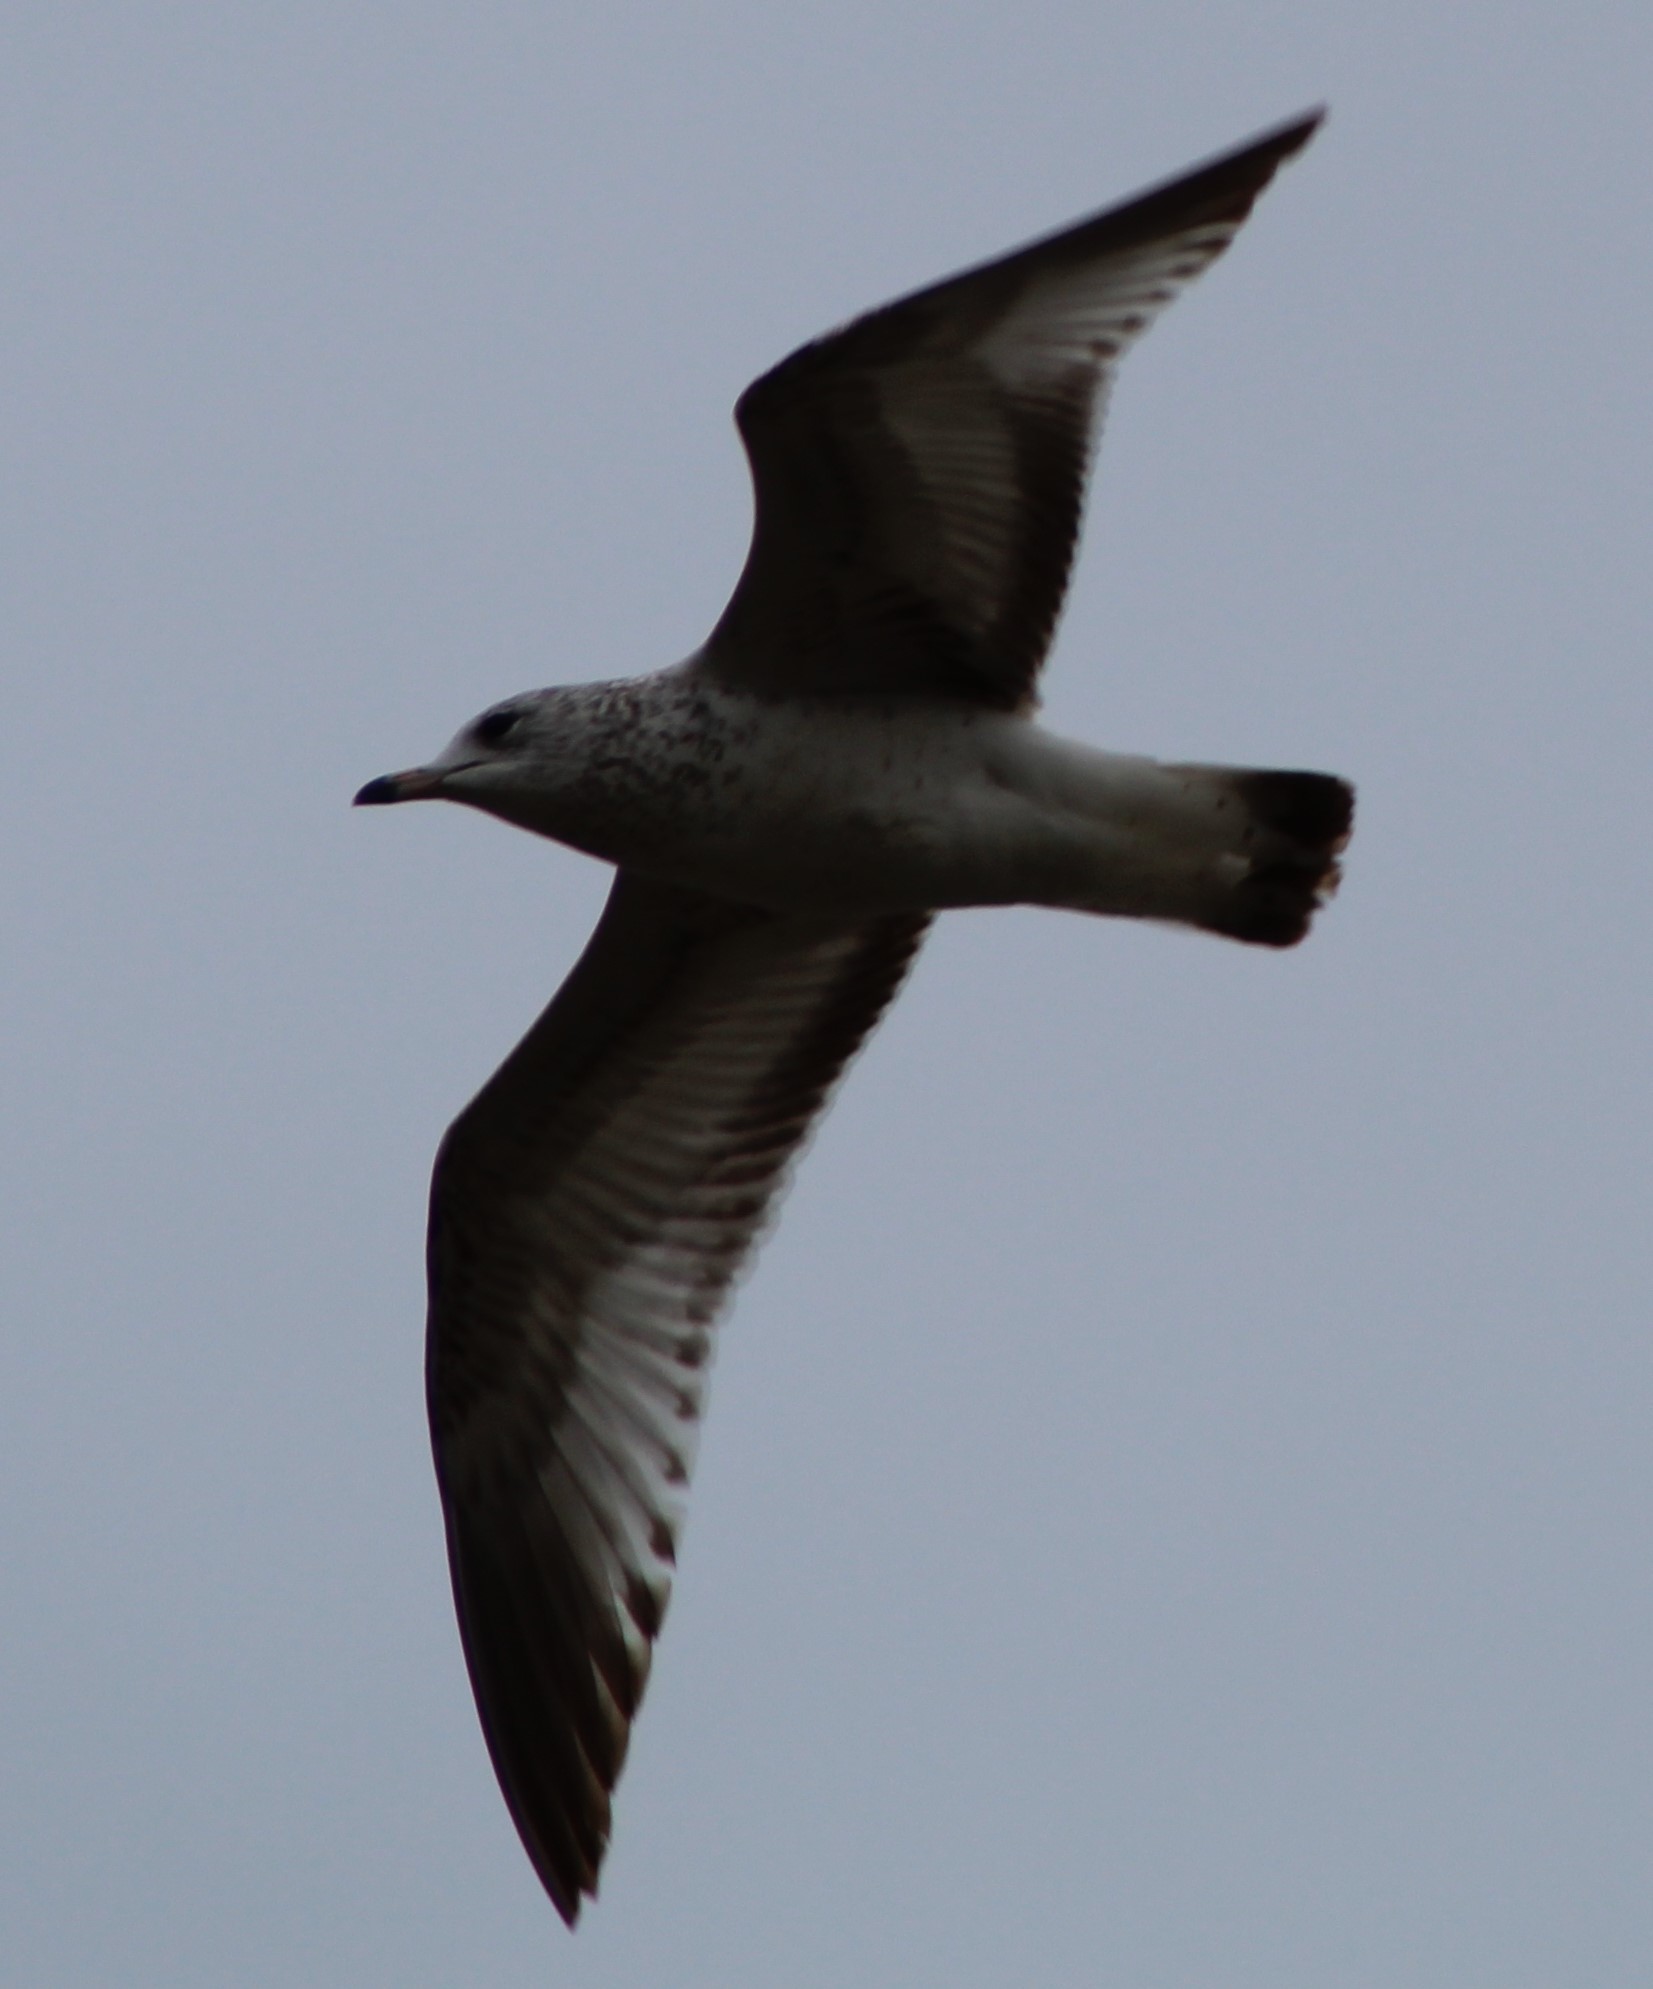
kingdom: Animalia
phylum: Chordata
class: Aves
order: Charadriiformes
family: Laridae
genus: Larus
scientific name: Larus delawarensis
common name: Ring-billed gull
